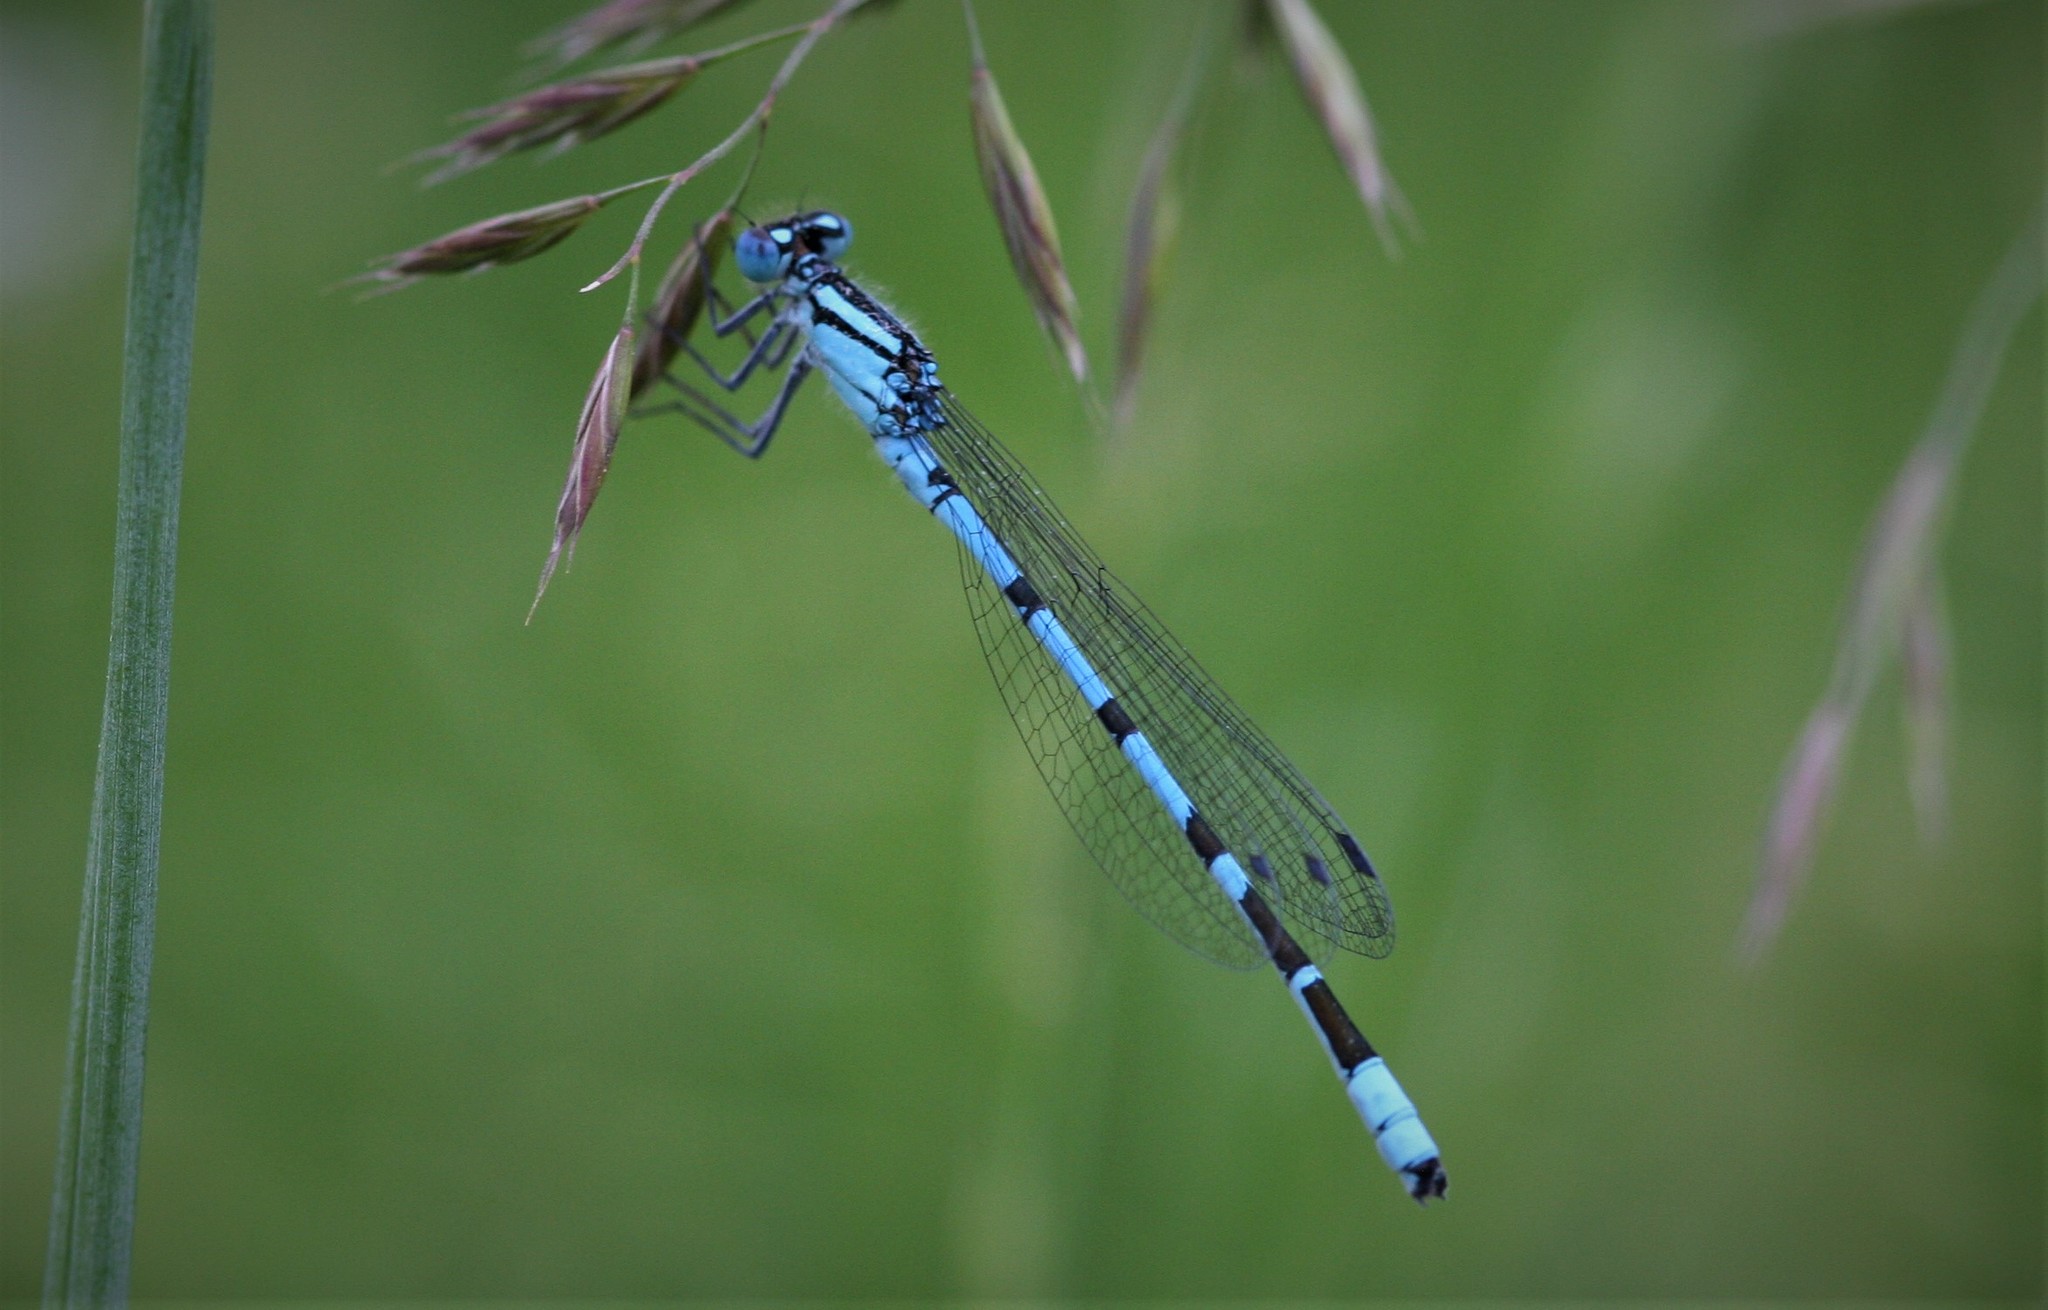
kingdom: Animalia
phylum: Arthropoda
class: Insecta
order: Odonata
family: Coenagrionidae
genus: Enallagma
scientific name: Enallagma cyathigerum
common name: Common blue damselfly
